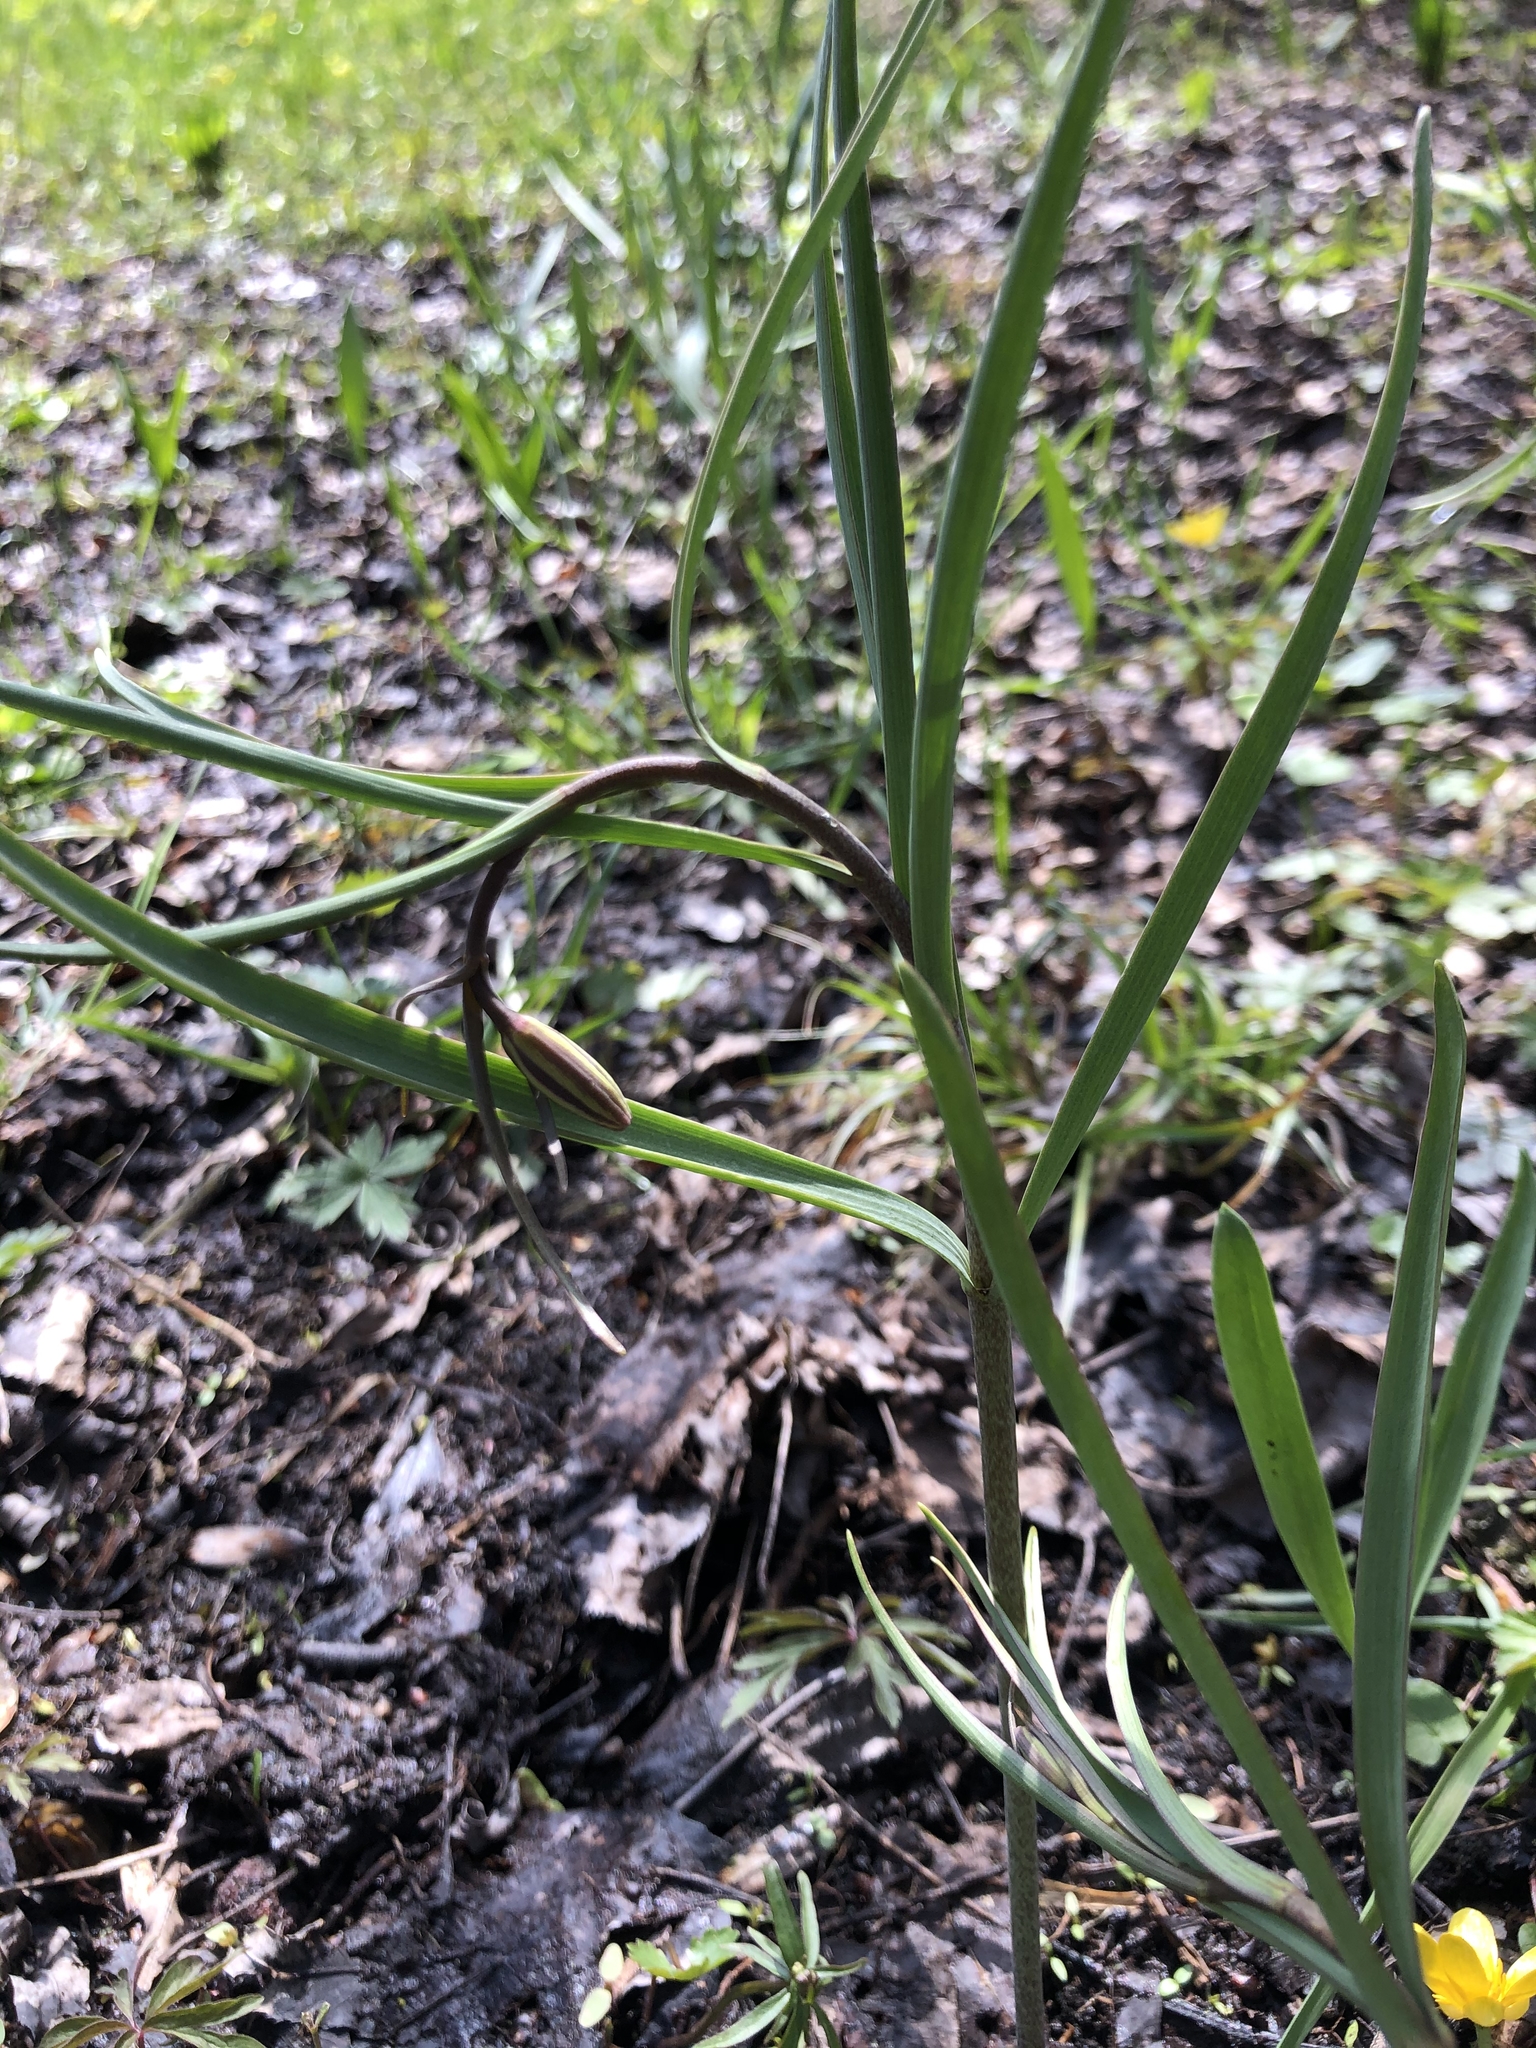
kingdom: Plantae
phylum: Tracheophyta
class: Liliopsida
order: Liliales
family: Liliaceae
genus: Fritillaria
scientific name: Fritillaria montana
